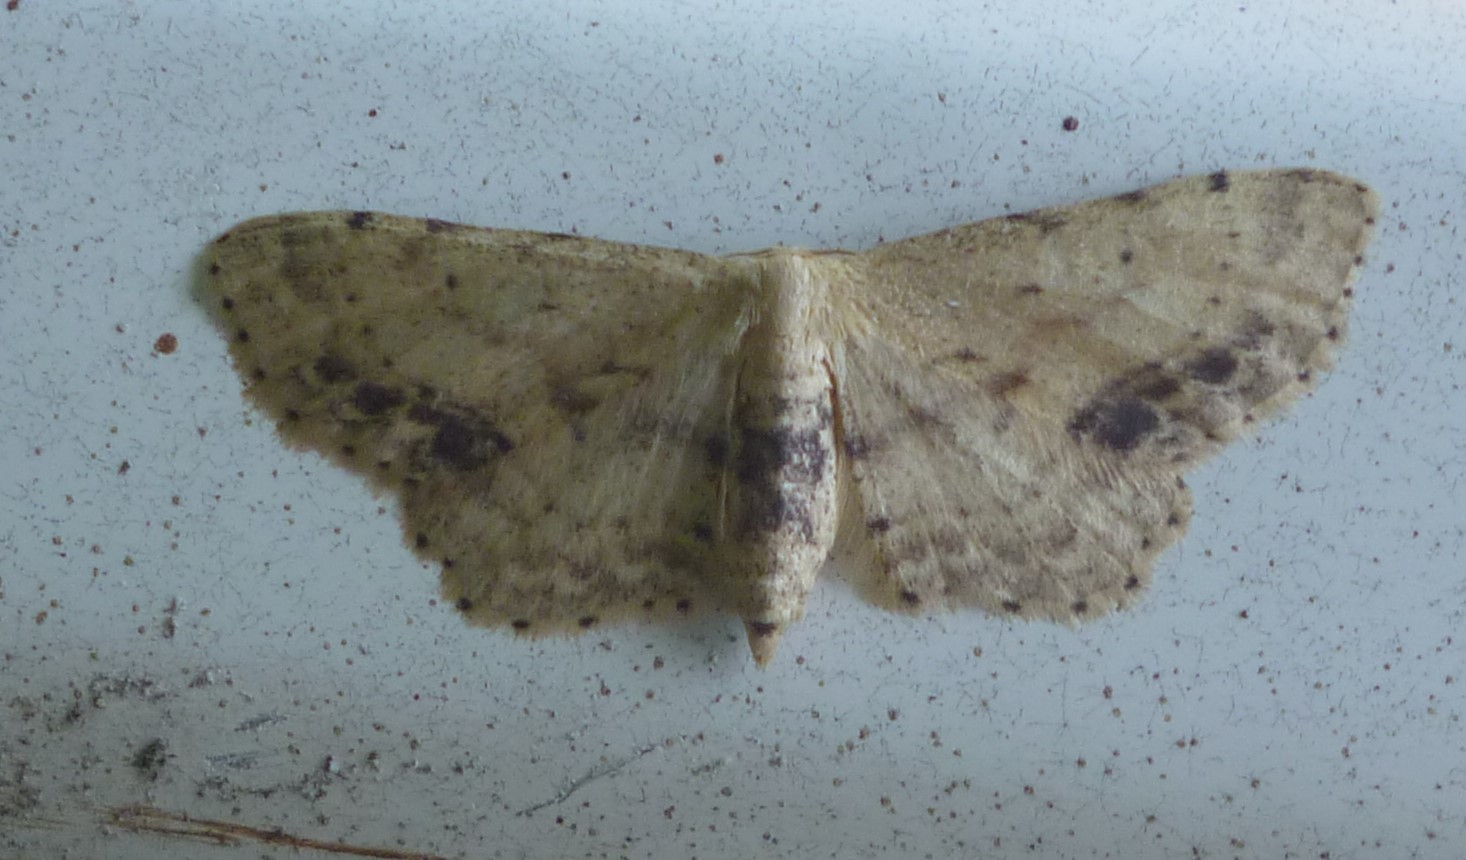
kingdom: Animalia
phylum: Arthropoda
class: Insecta
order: Lepidoptera
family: Geometridae
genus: Idaea
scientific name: Idaea dimidiata
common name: Single-dotted wave
